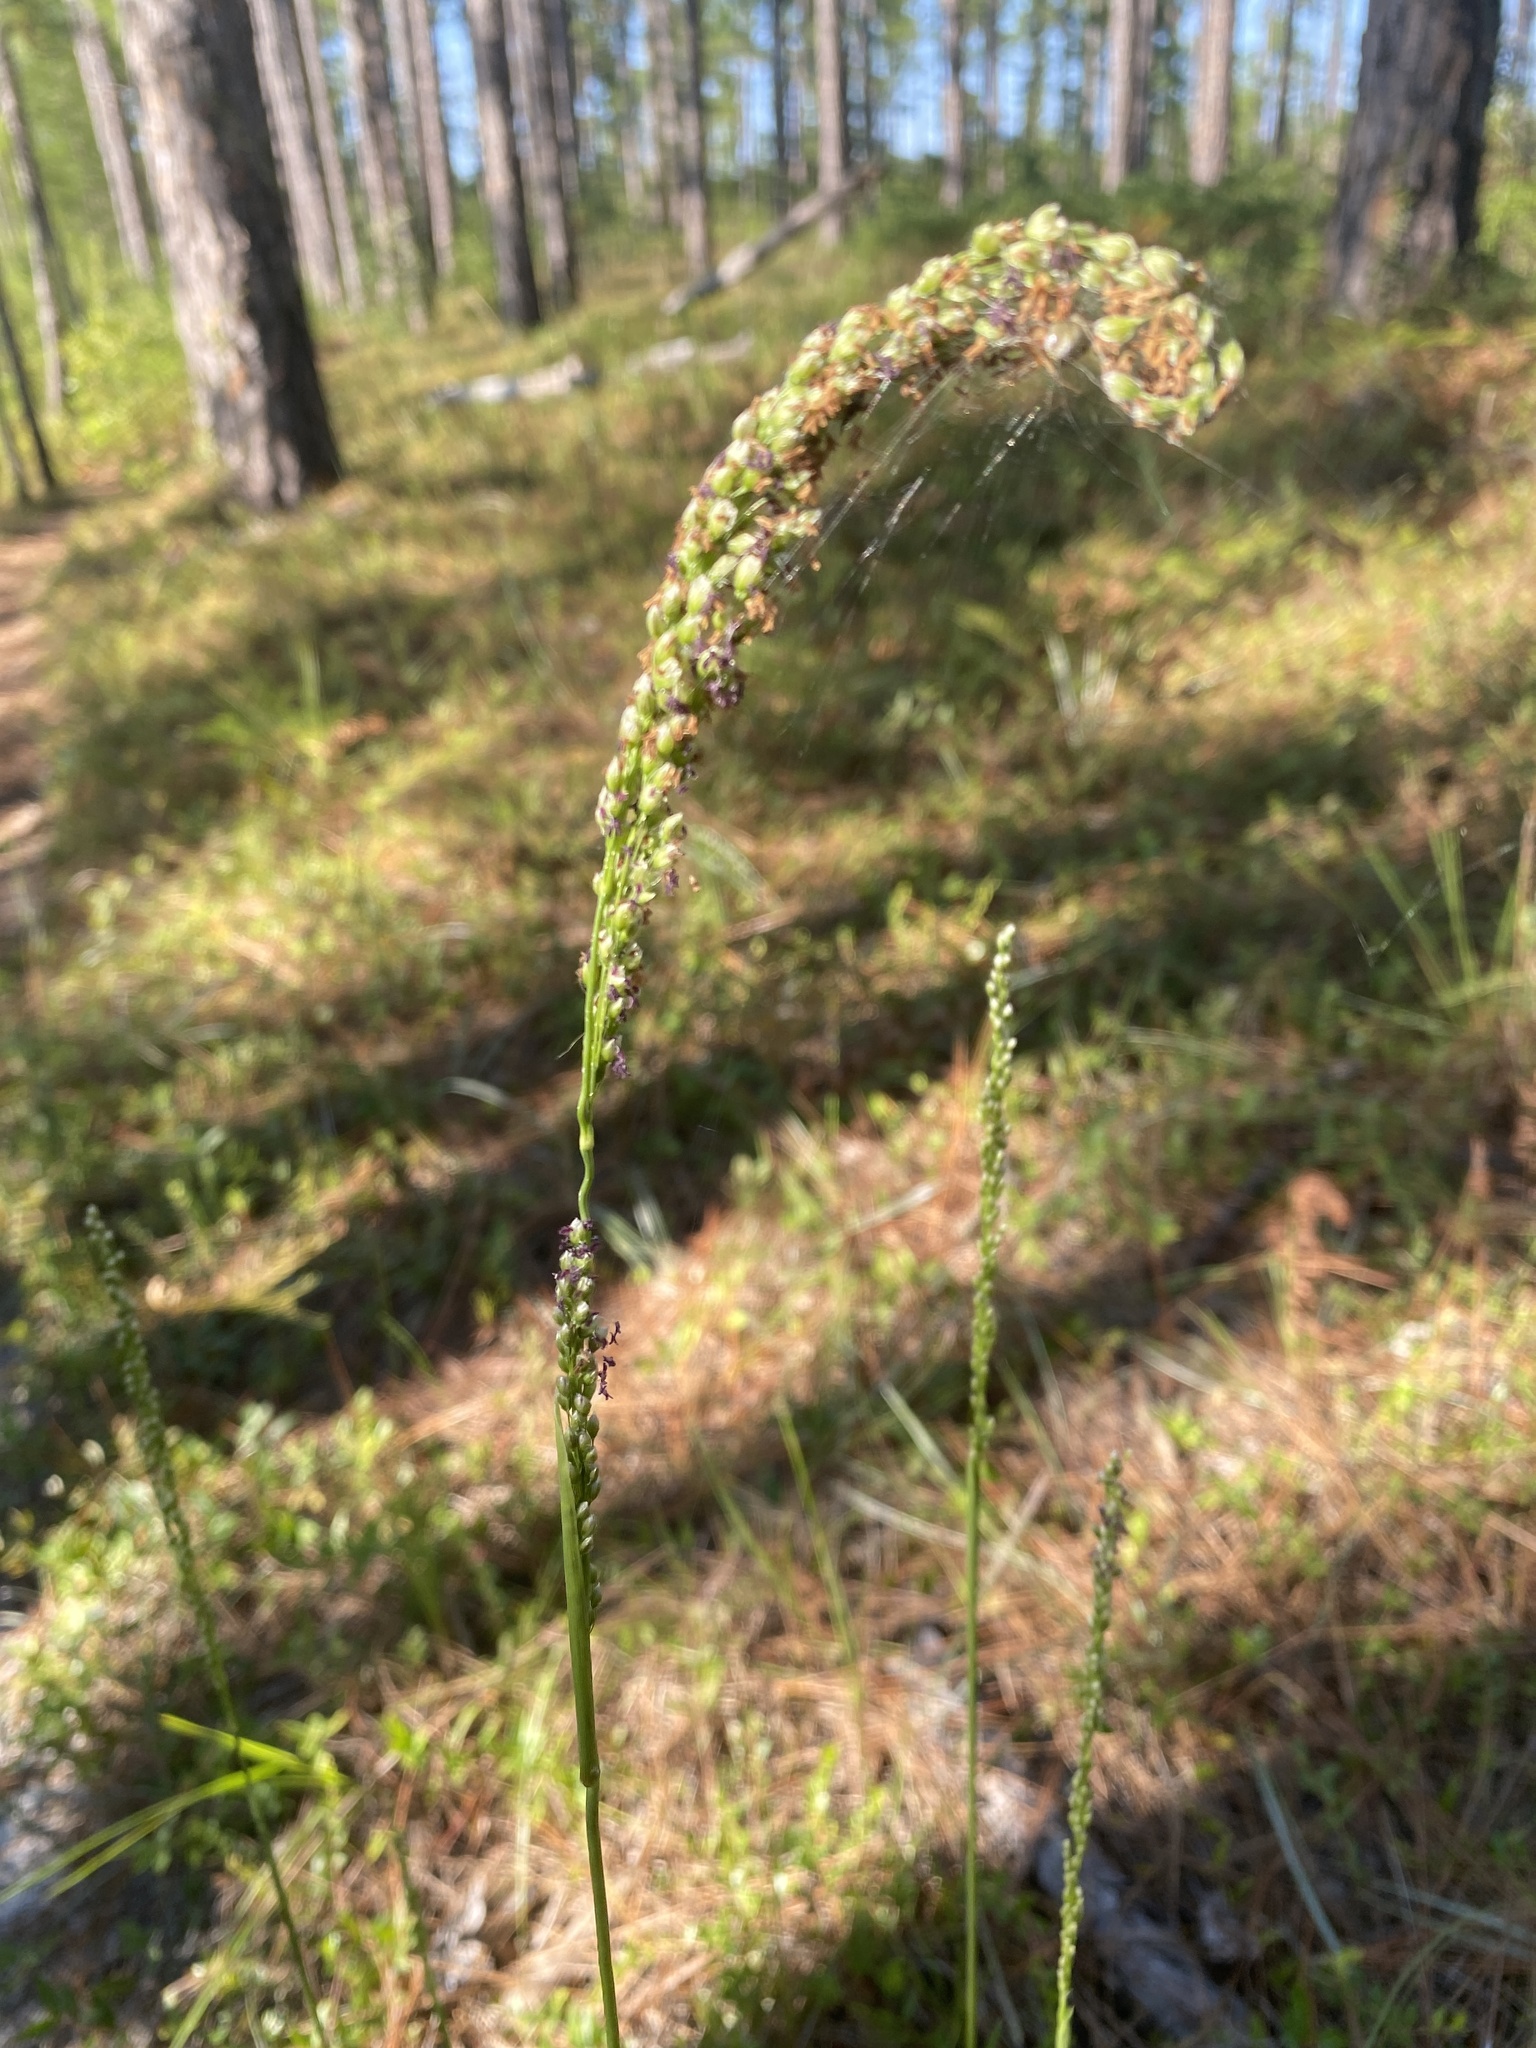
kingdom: Plantae
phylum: Tracheophyta
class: Liliopsida
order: Poales
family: Poaceae
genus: Anthenantia
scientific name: Anthenantia villosa
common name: Green silkyscale
